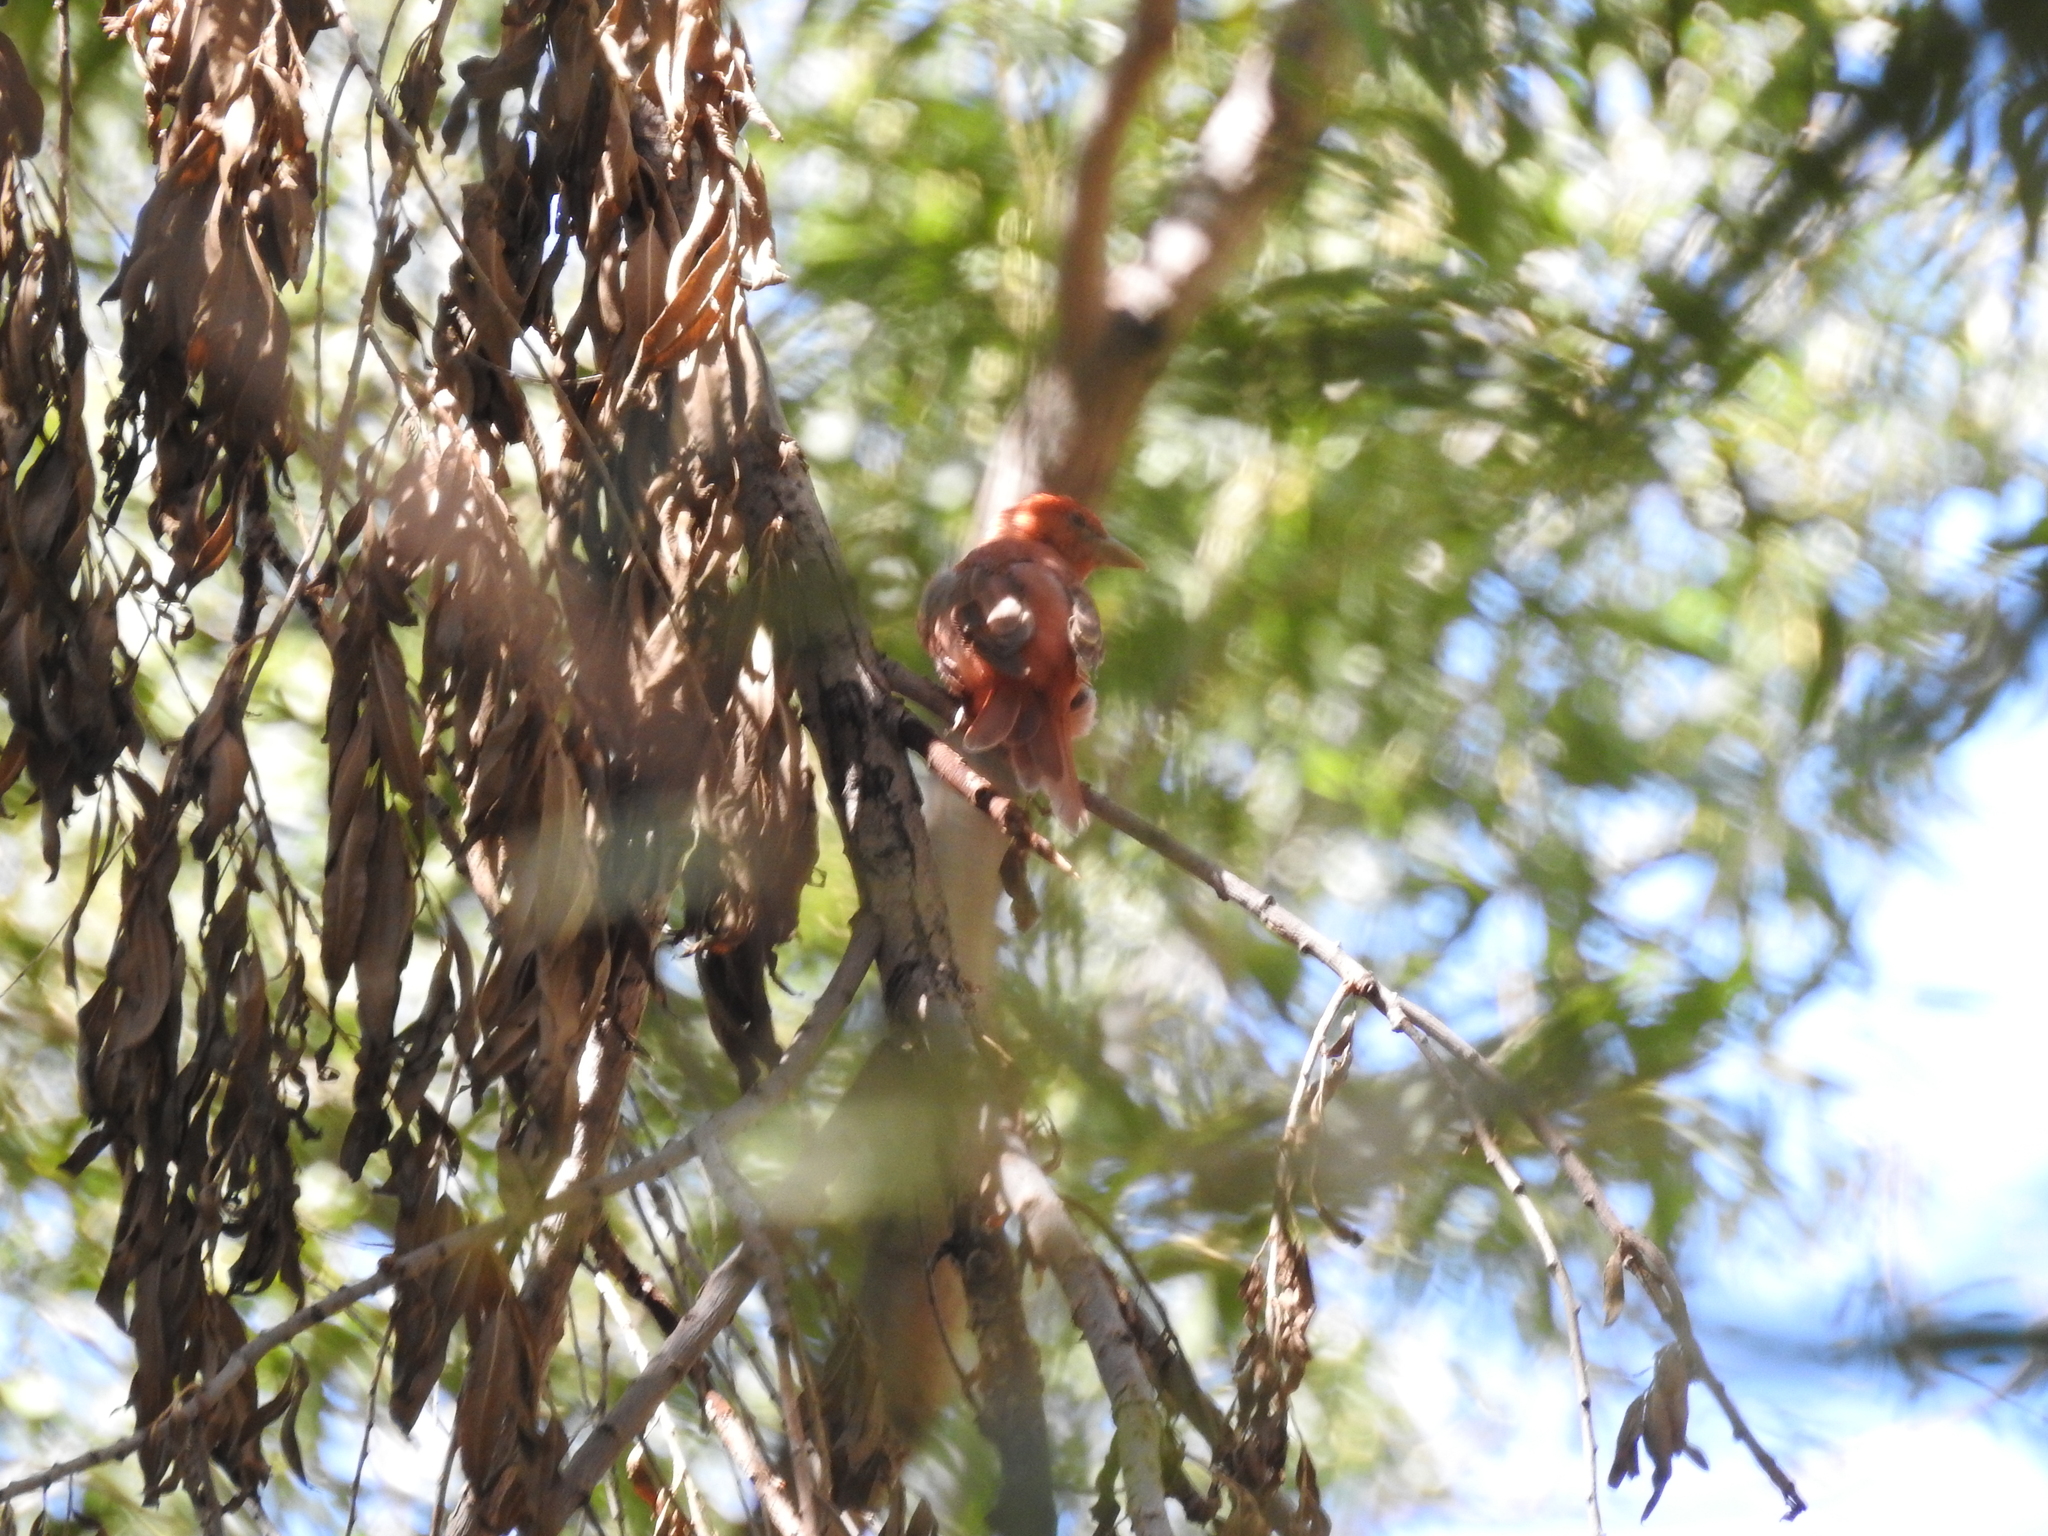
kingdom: Animalia
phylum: Chordata
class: Aves
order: Passeriformes
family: Cardinalidae
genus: Piranga
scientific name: Piranga rubra
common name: Summer tanager
